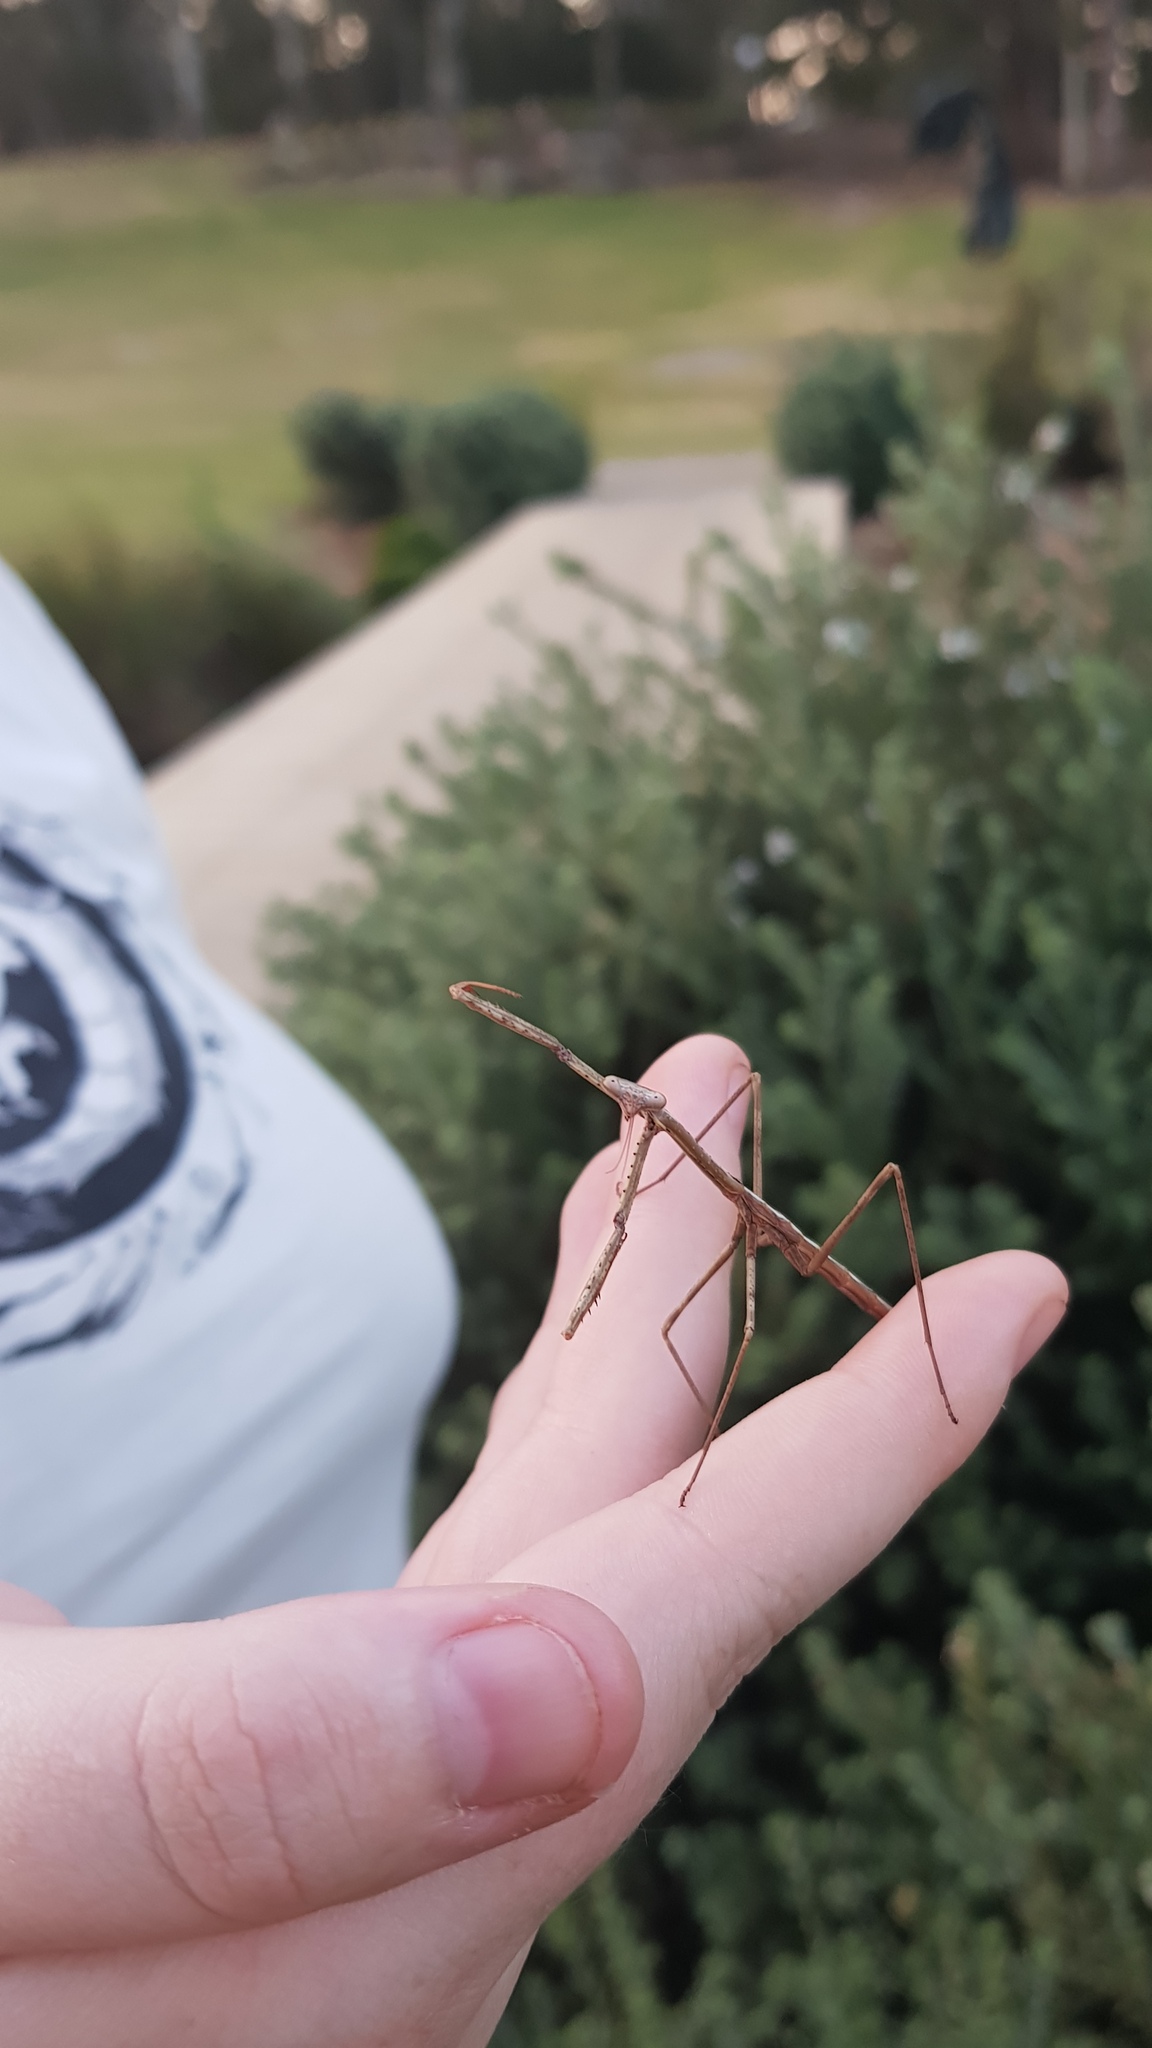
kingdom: Animalia
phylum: Arthropoda
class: Insecta
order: Mantodea
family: Mantidae
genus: Archimantis
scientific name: Archimantis latistyla
